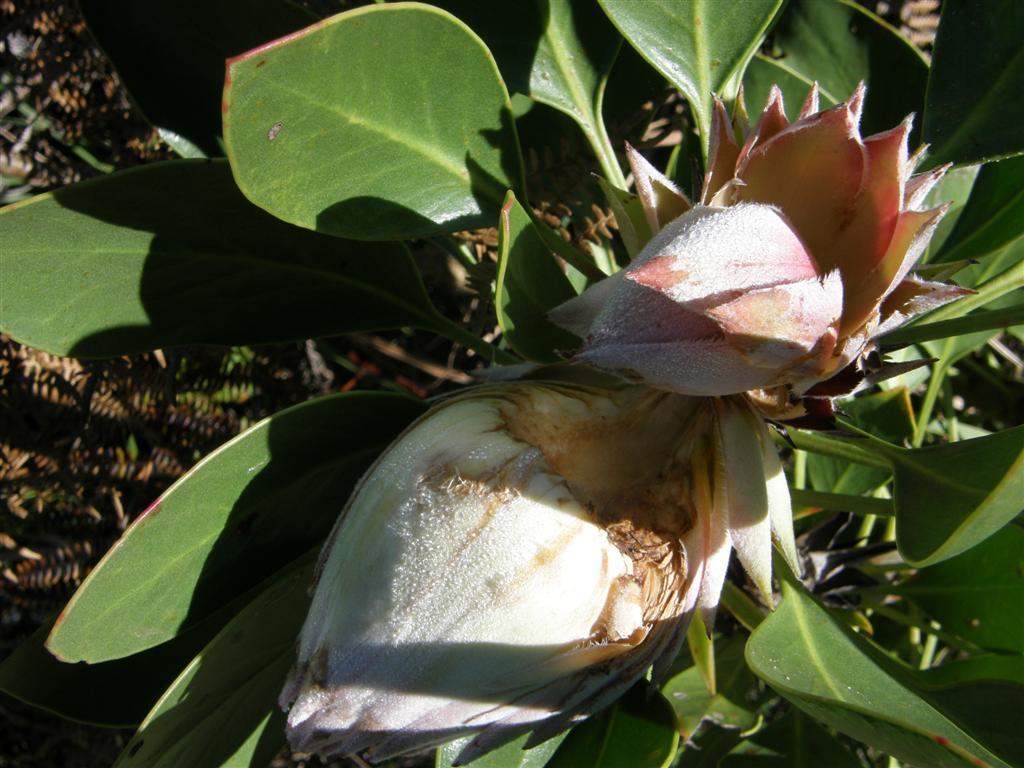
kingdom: Plantae
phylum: Tracheophyta
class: Magnoliopsida
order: Proteales
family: Proteaceae
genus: Protea
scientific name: Protea cynaroides
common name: King protea
